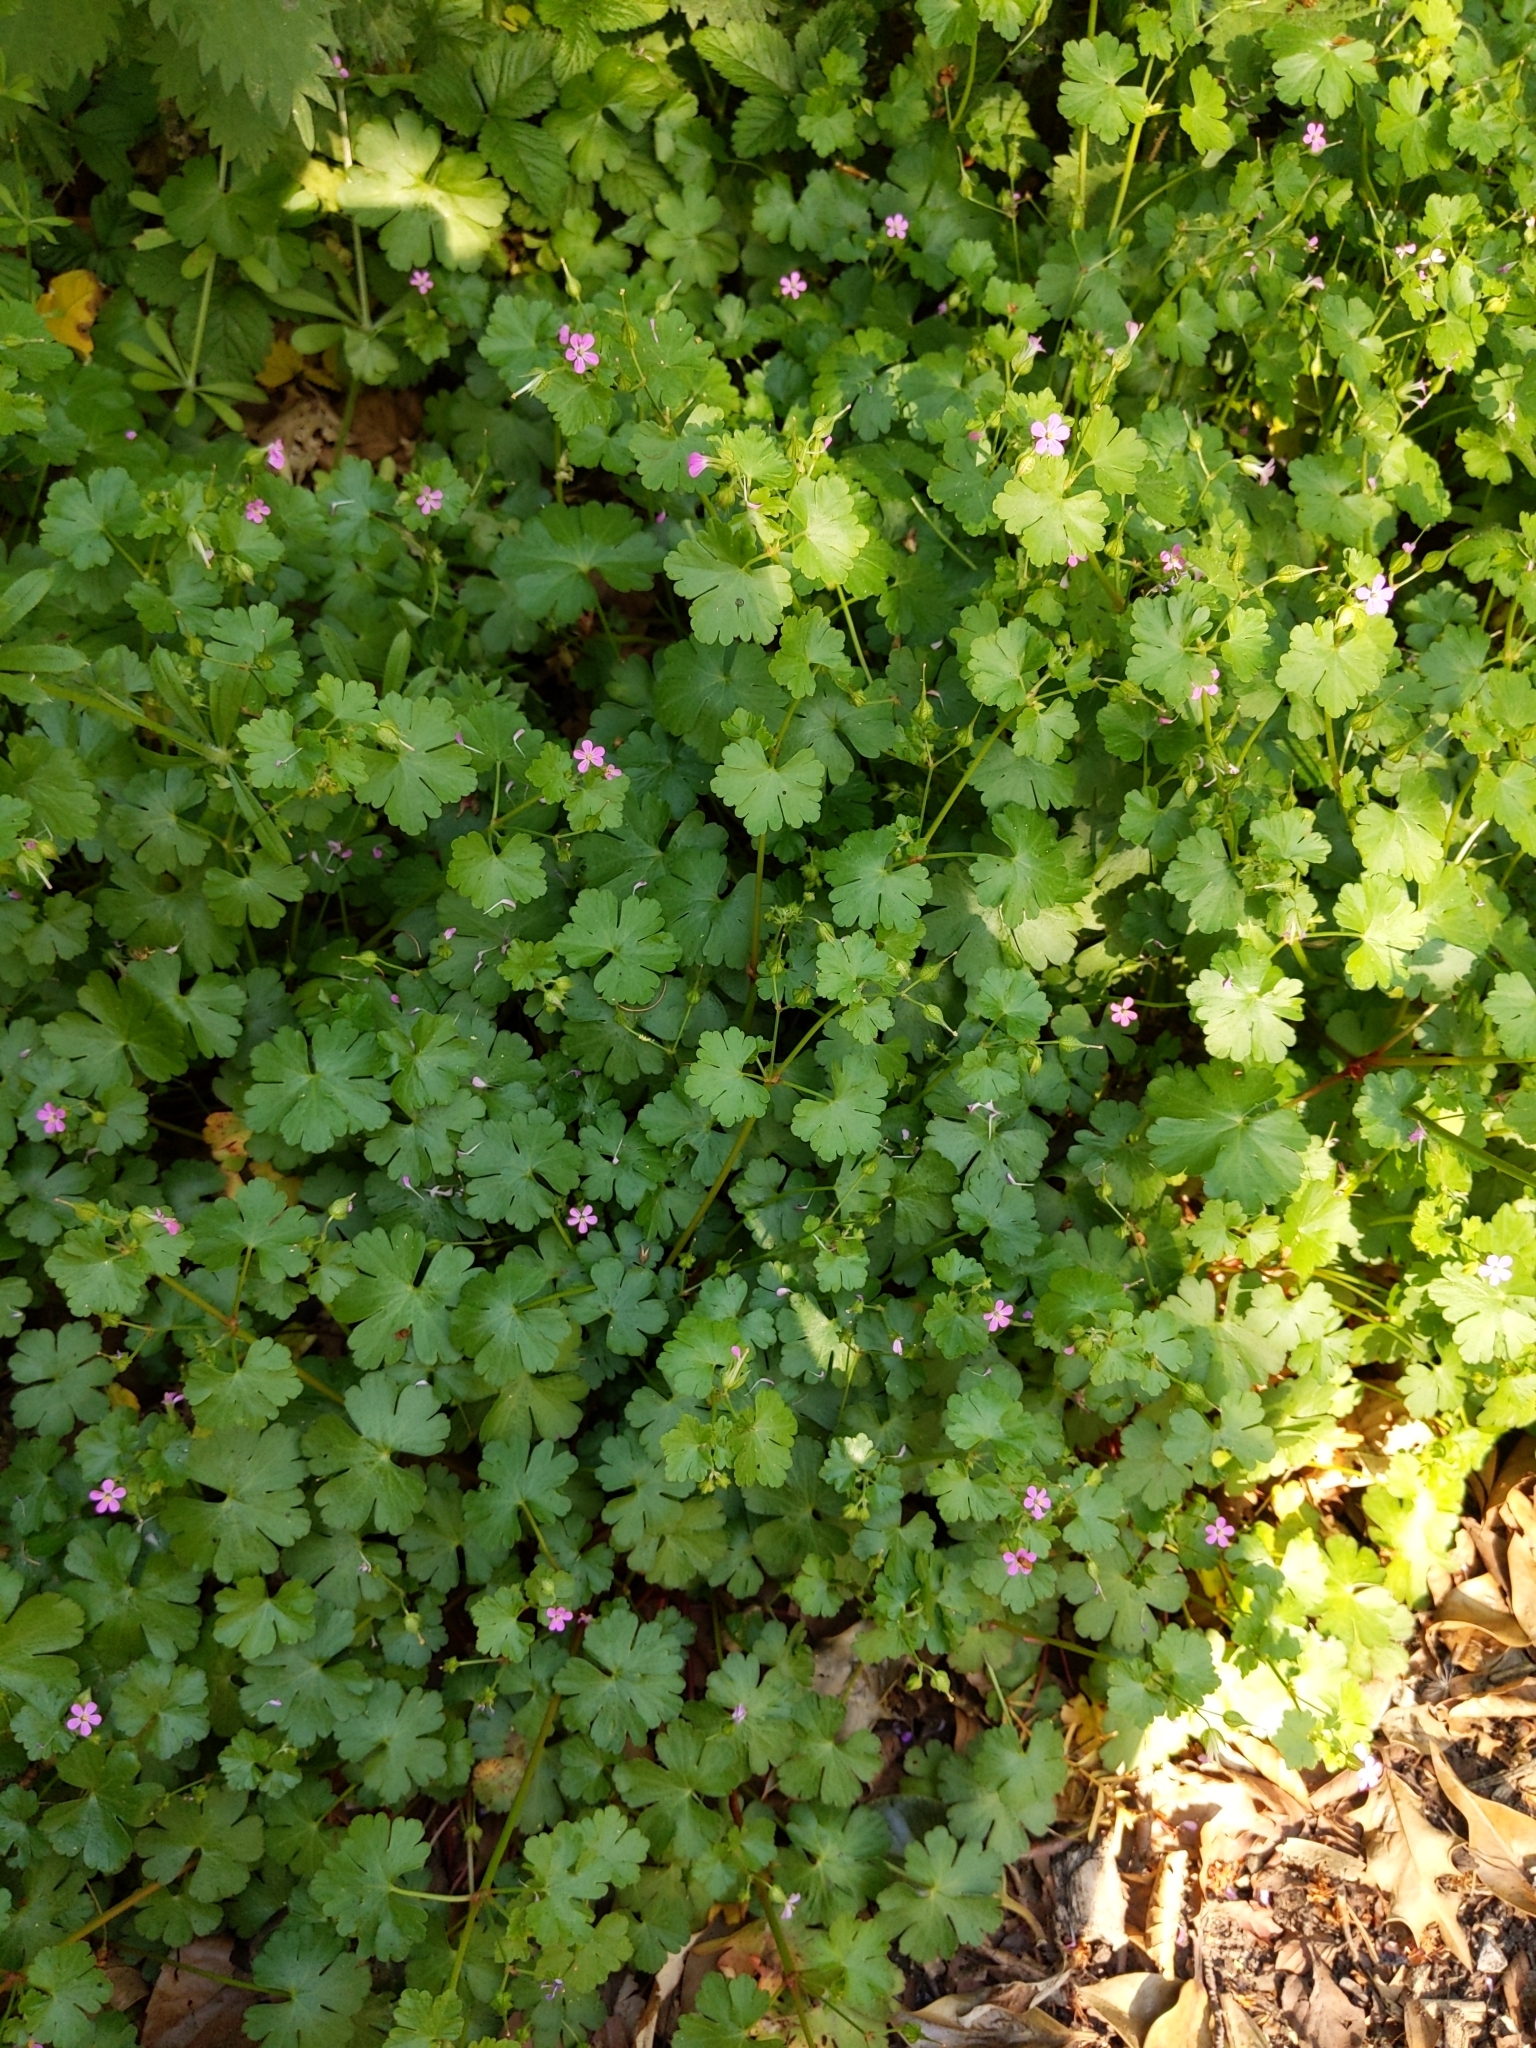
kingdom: Plantae
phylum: Tracheophyta
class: Magnoliopsida
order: Geraniales
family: Geraniaceae
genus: Geranium
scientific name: Geranium lucidum
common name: Shining crane's-bill
